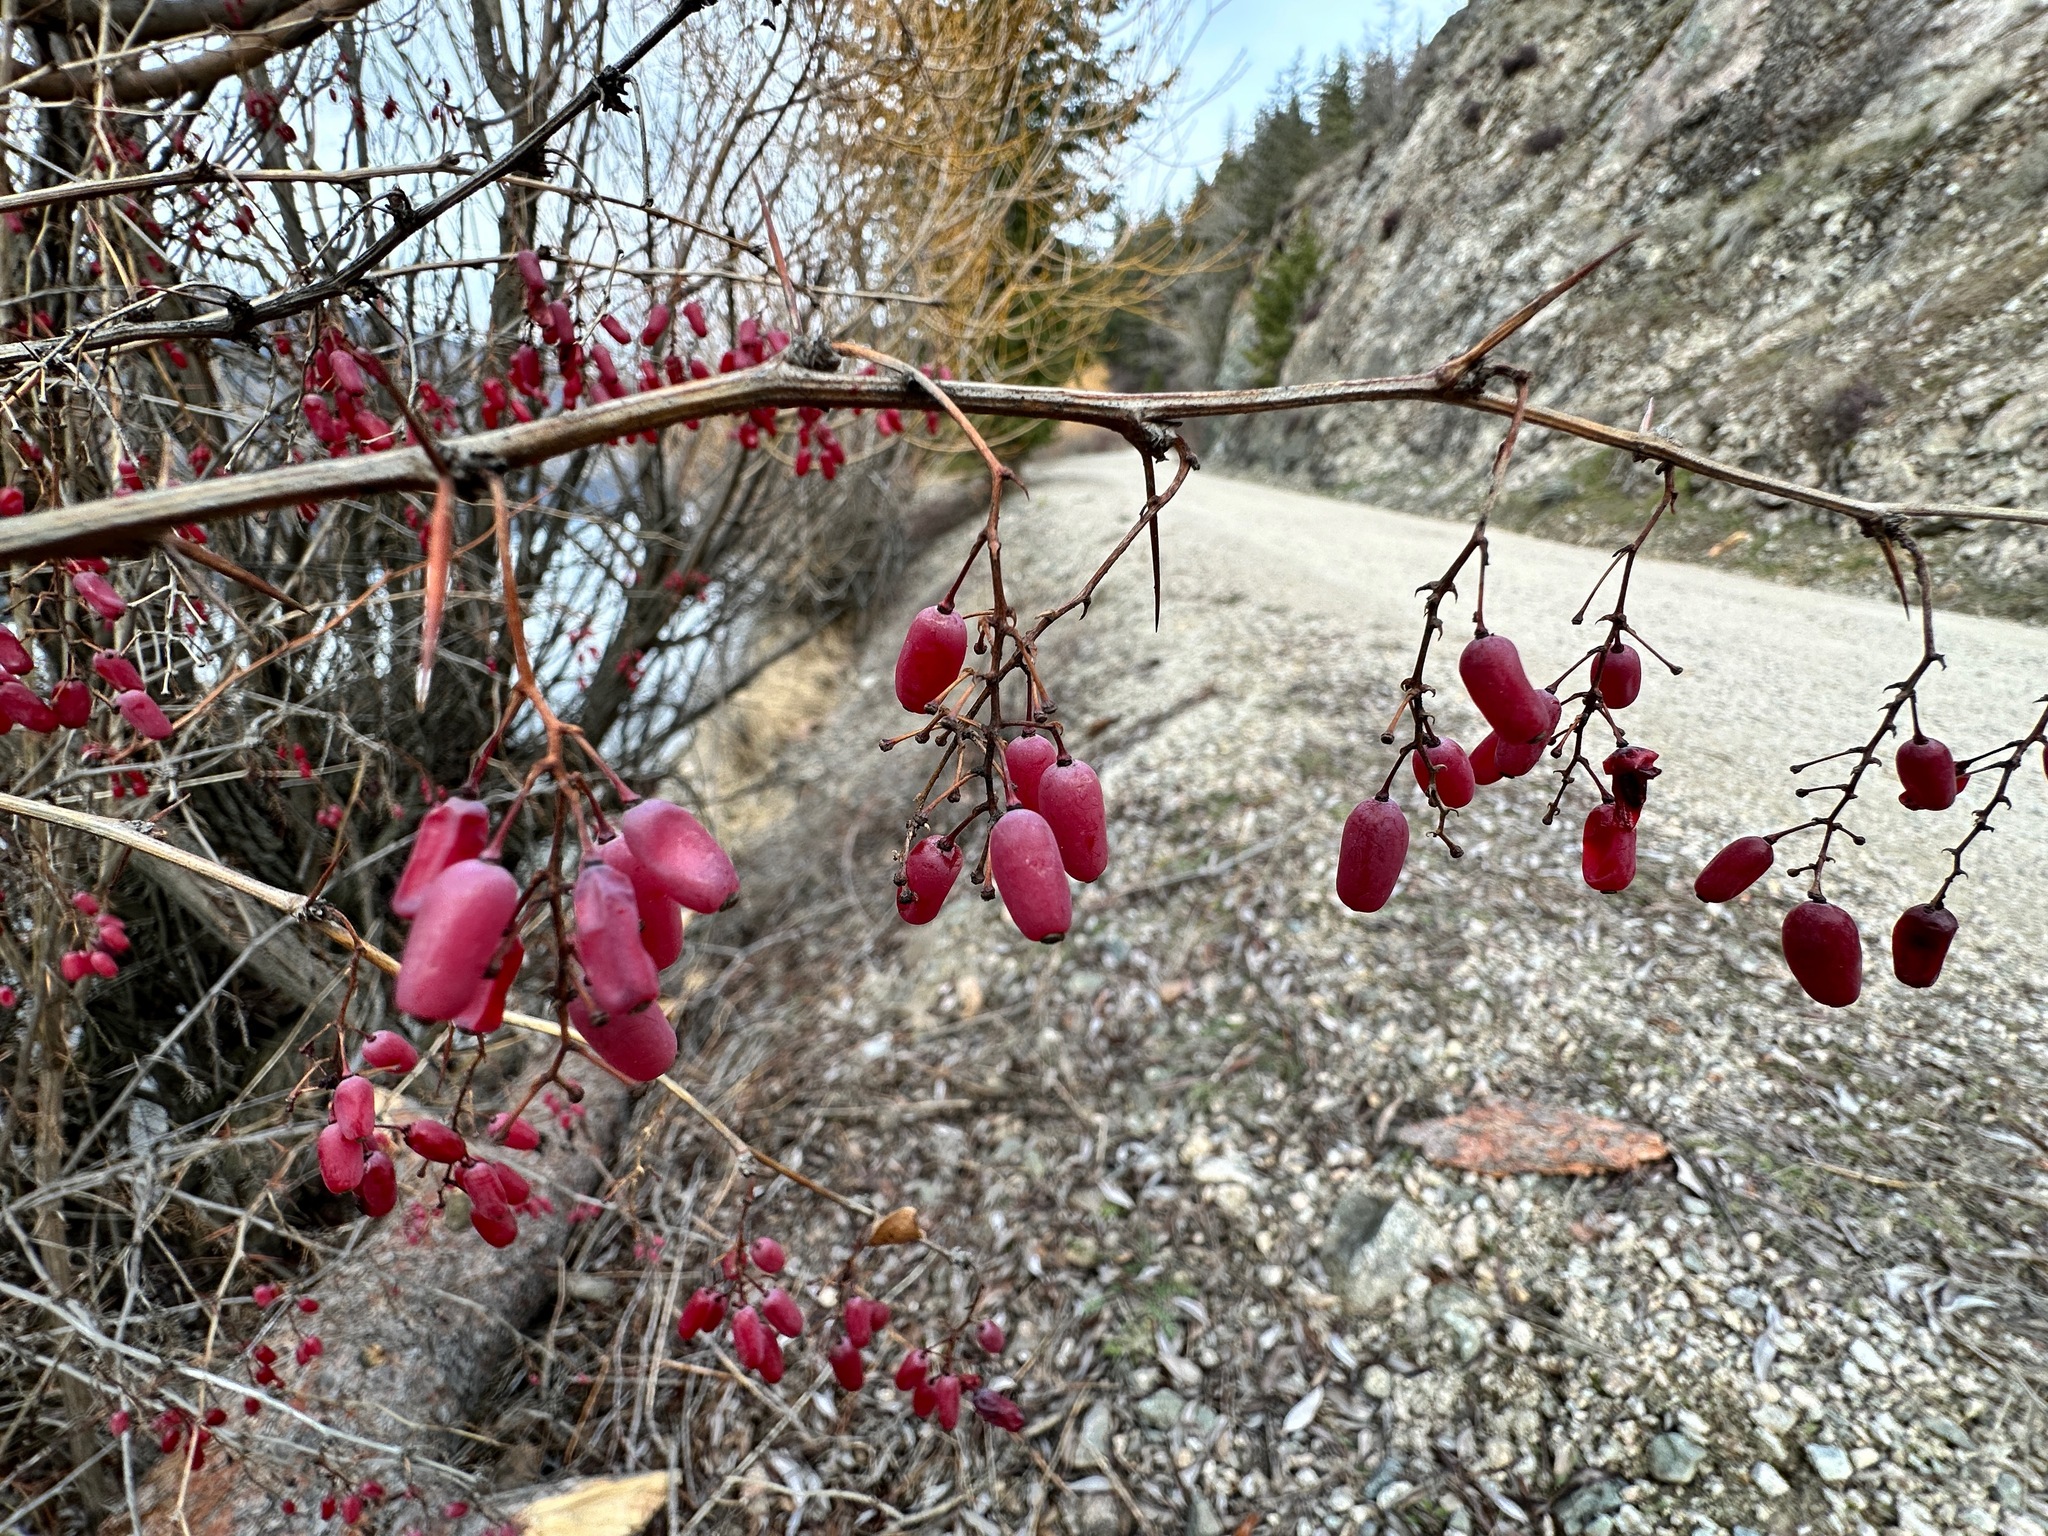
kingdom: Plantae
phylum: Tracheophyta
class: Magnoliopsida
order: Ranunculales
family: Berberidaceae
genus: Berberis
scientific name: Berberis vulgaris
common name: Barberry
